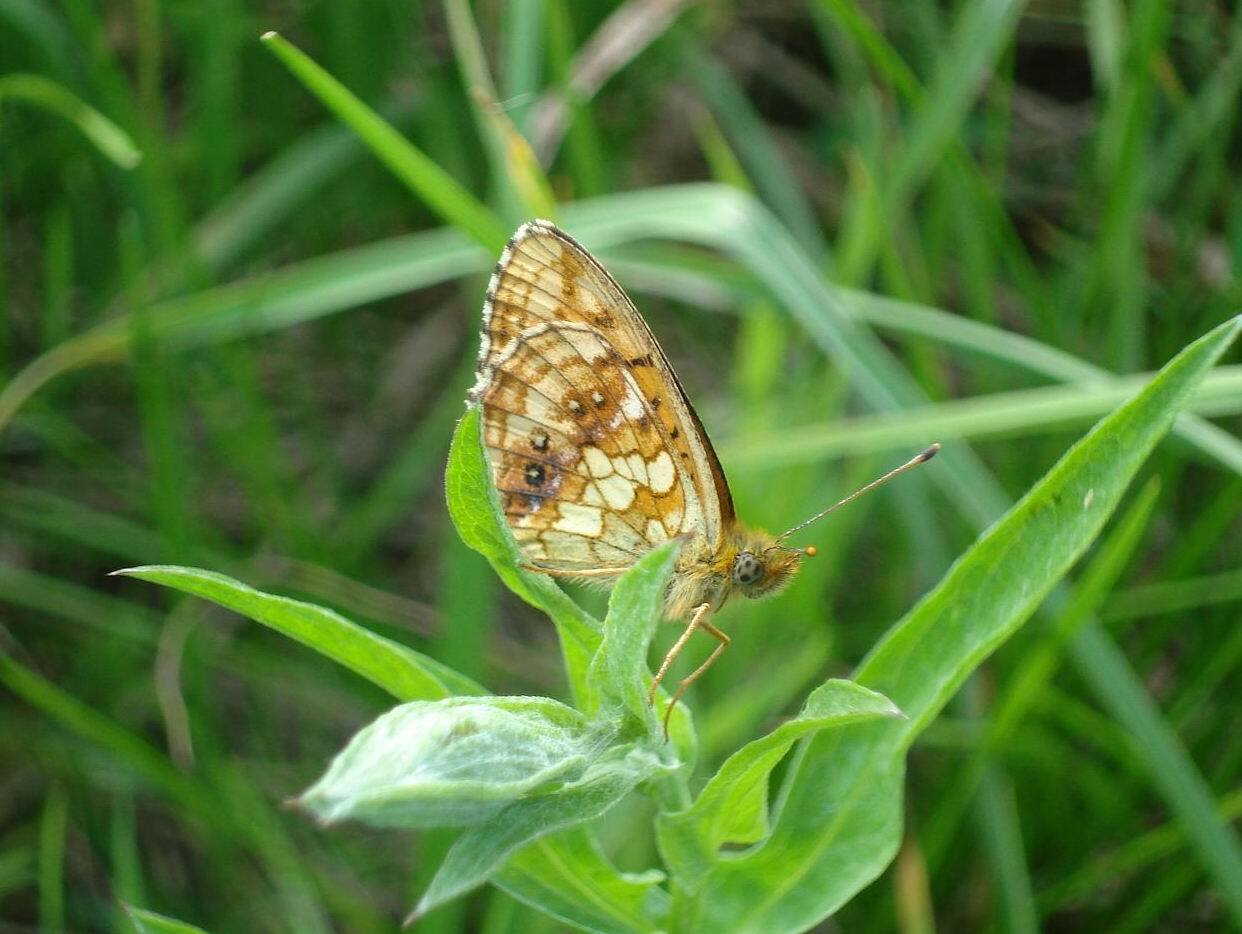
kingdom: Animalia
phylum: Arthropoda
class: Insecta
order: Lepidoptera
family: Nymphalidae
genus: Brenthis
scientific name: Brenthis ino
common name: Lesser marbled fritillary
